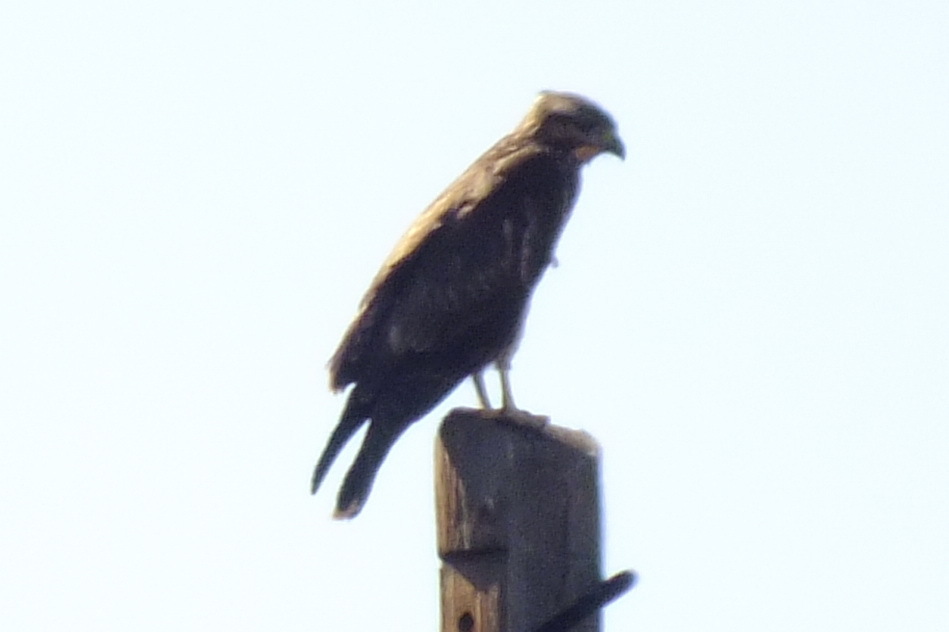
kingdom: Animalia
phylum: Chordata
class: Aves
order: Accipitriformes
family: Accipitridae
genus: Buteo
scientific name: Buteo buteo
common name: Common buzzard
